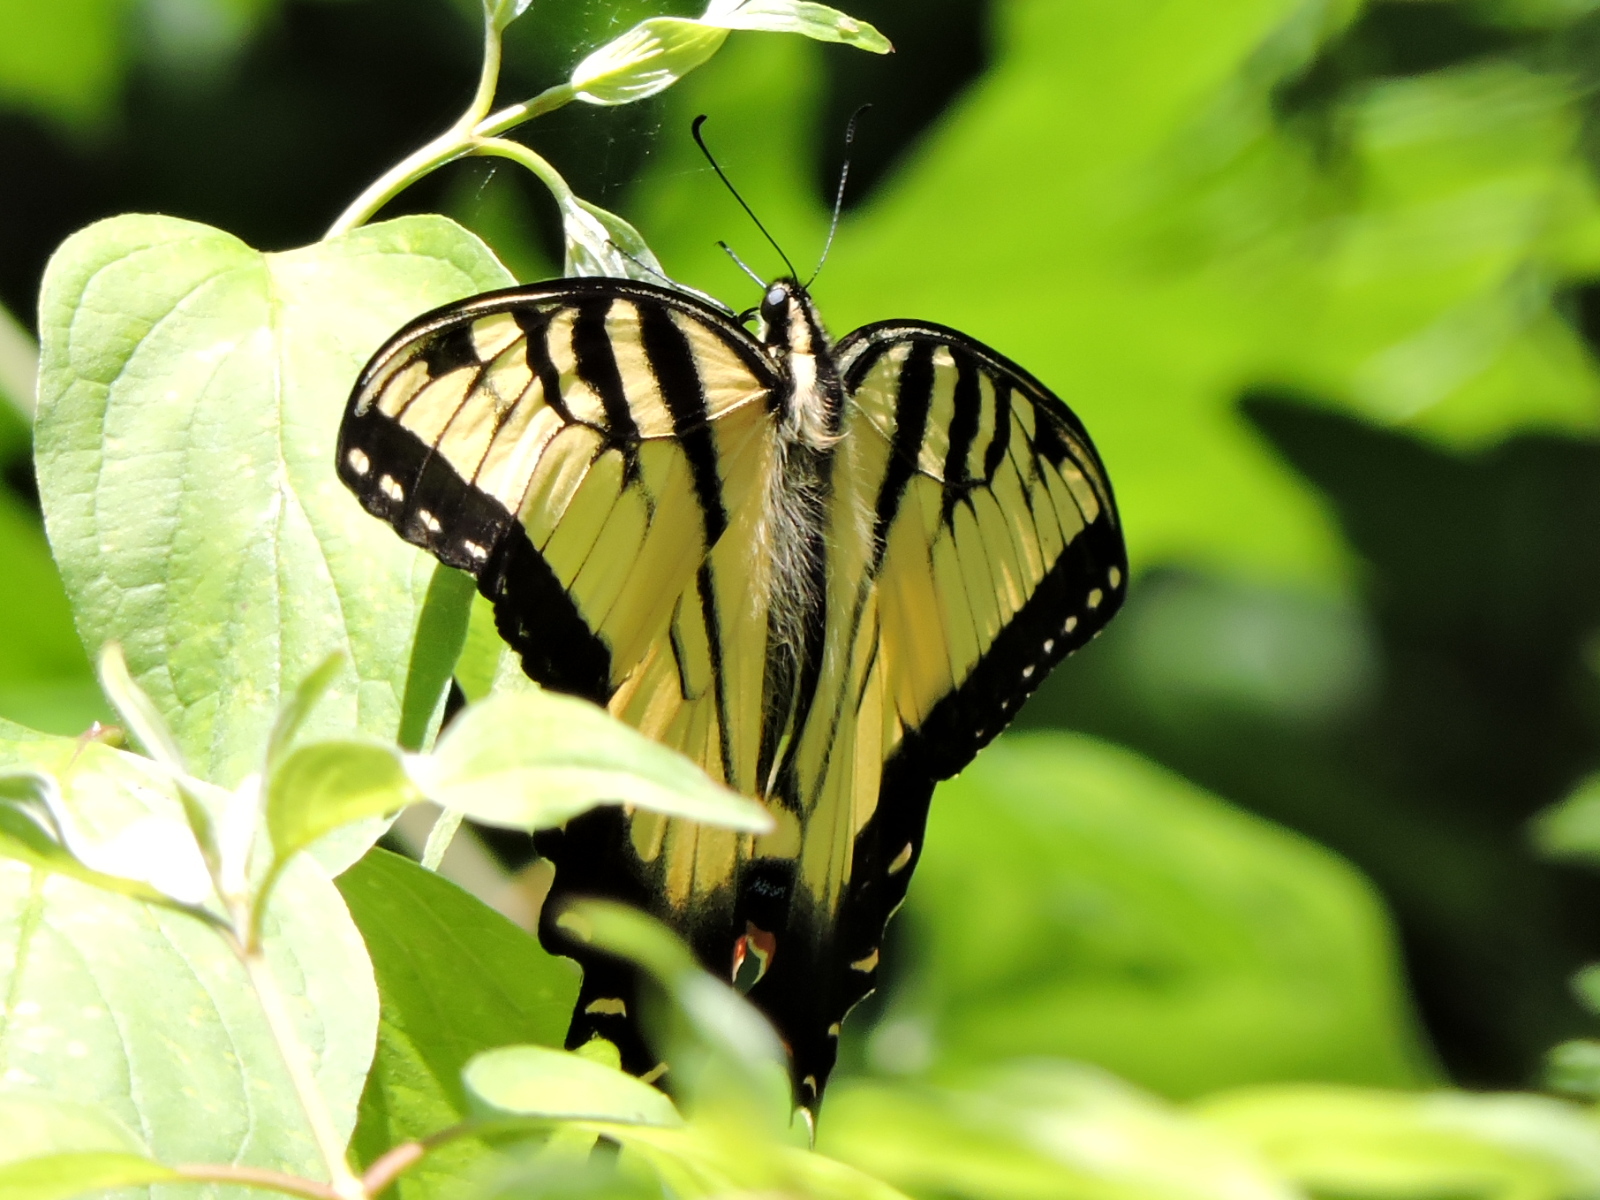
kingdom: Animalia
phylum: Arthropoda
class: Insecta
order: Lepidoptera
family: Papilionidae
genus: Papilio
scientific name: Papilio glaucus
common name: Tiger swallowtail
